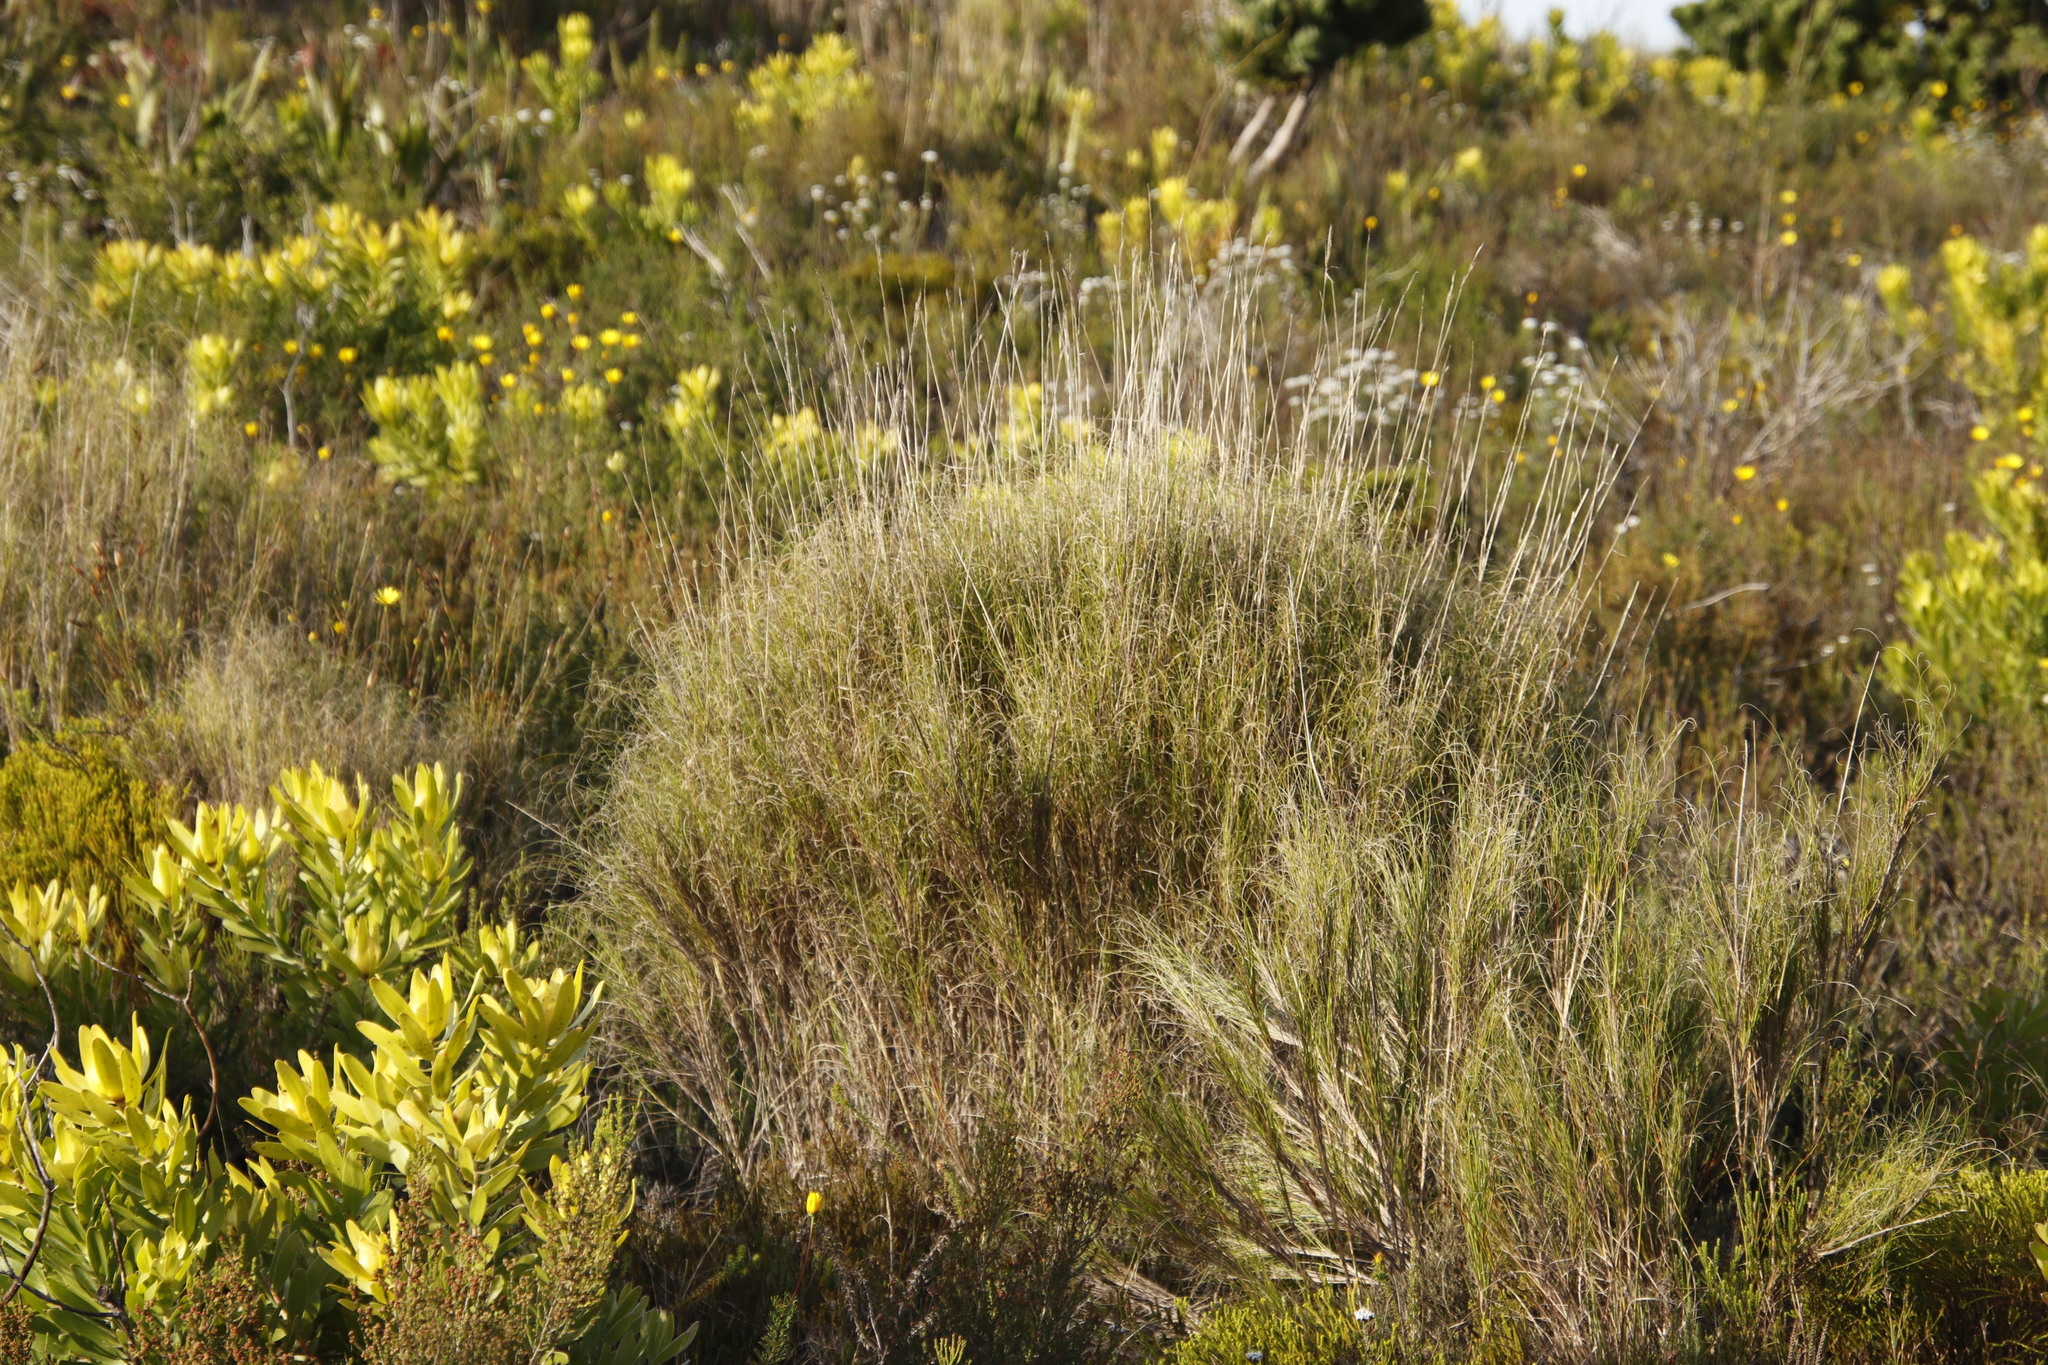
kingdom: Plantae
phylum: Tracheophyta
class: Liliopsida
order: Poales
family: Poaceae
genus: Pseudopentameris
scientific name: Pseudopentameris macrantha
